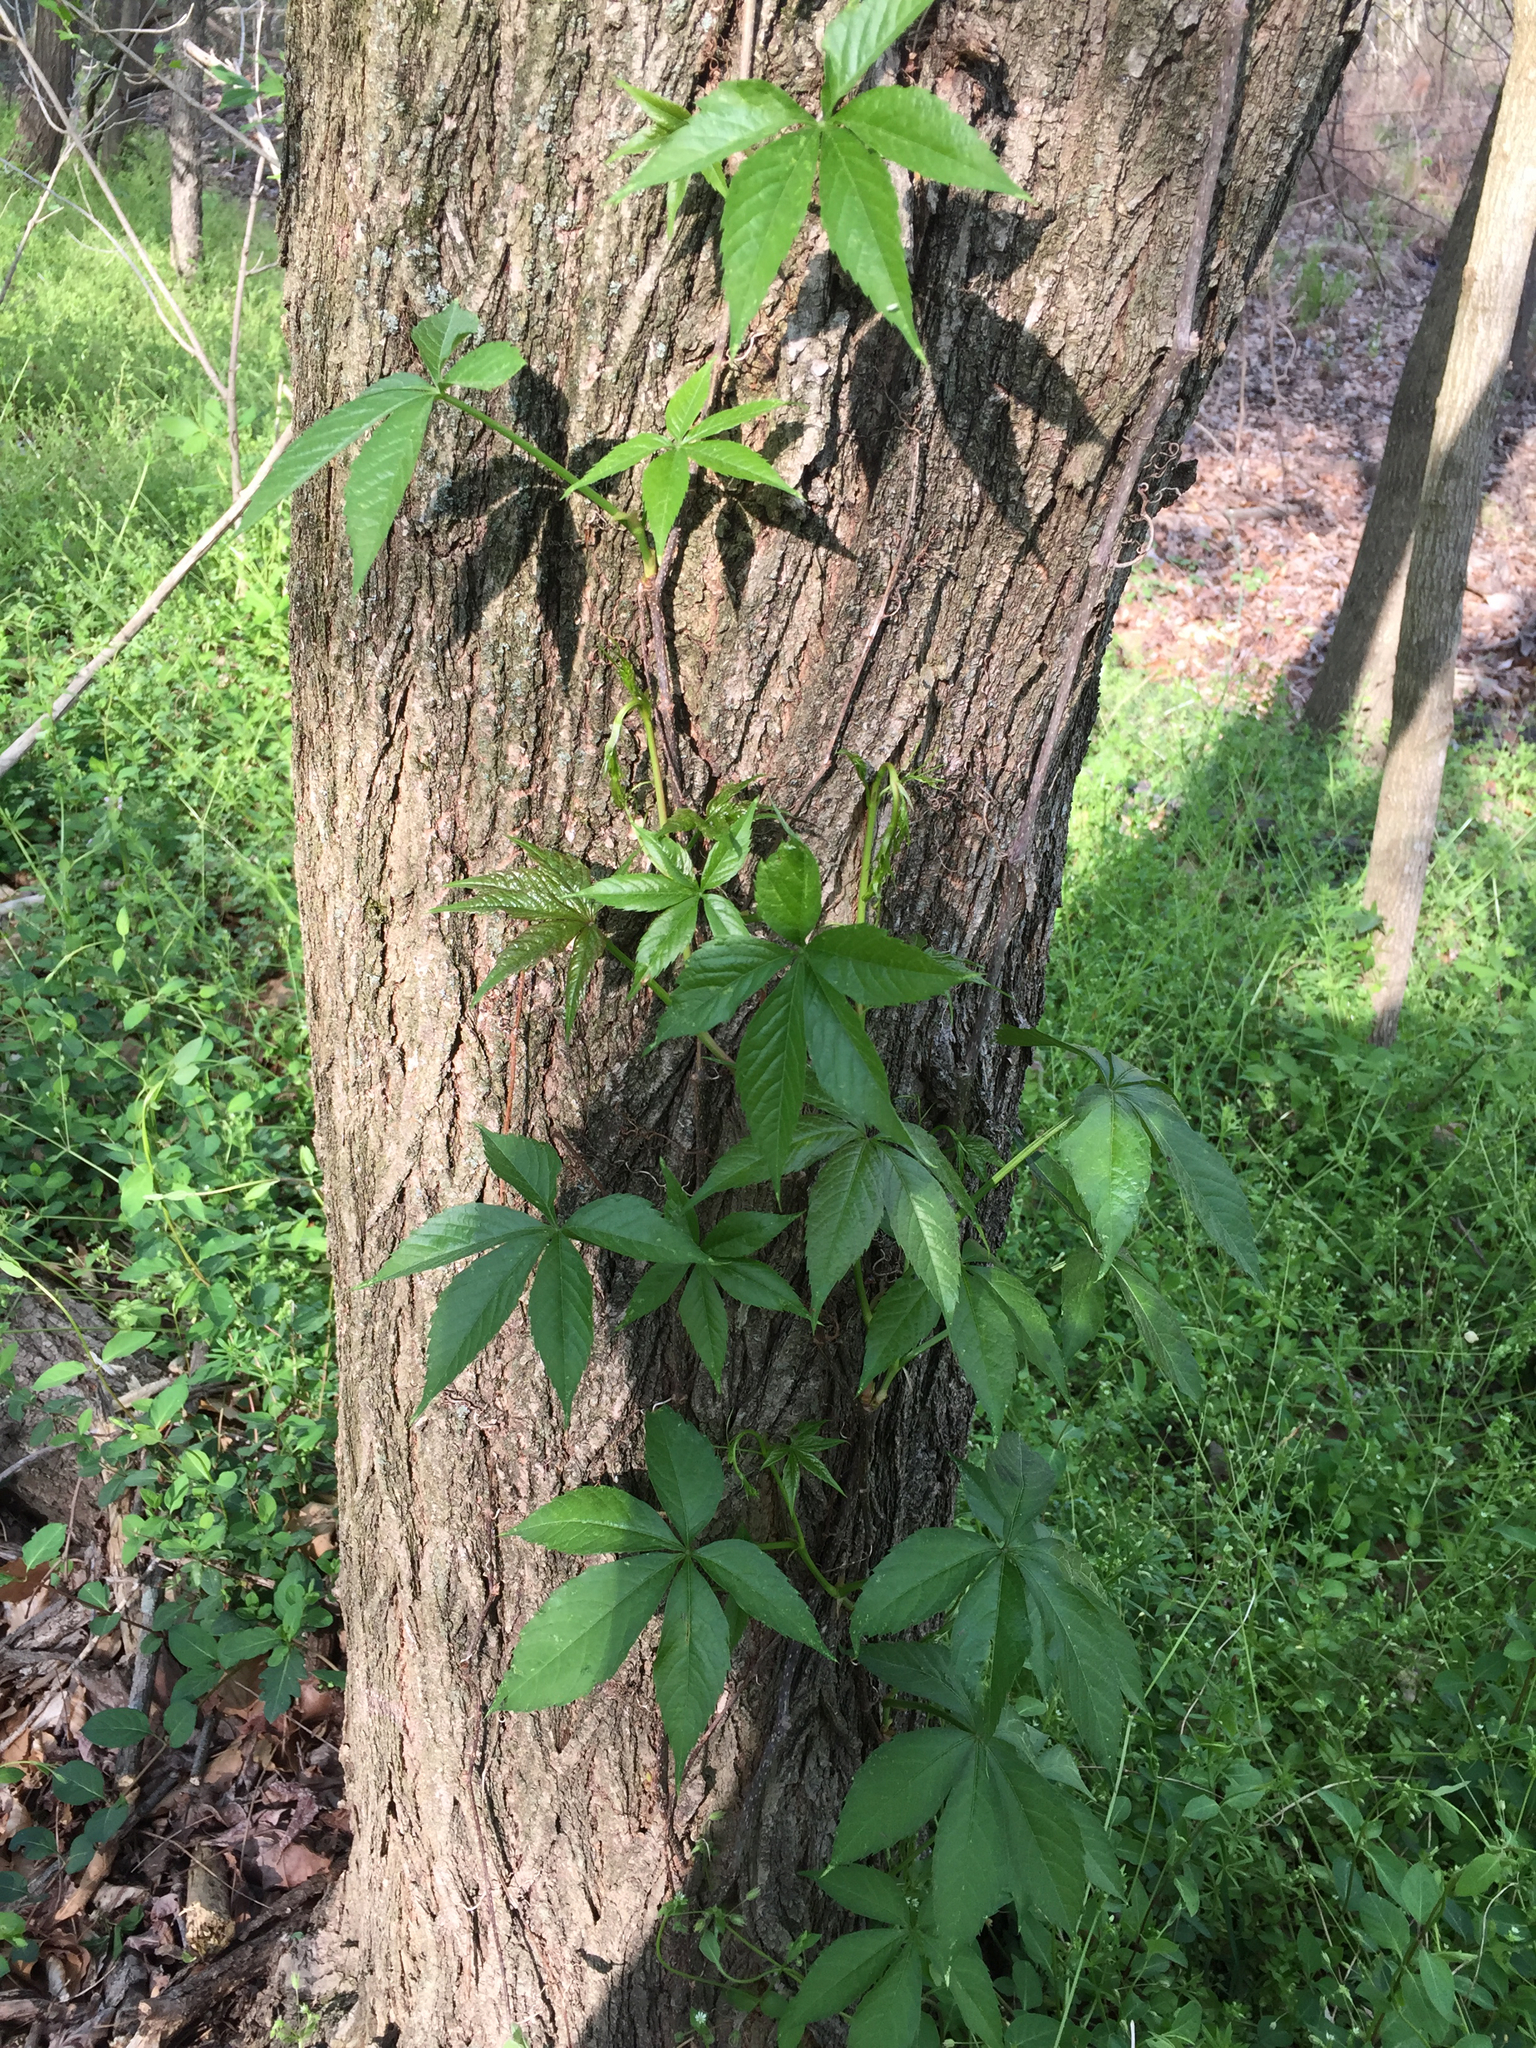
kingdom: Plantae
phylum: Tracheophyta
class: Magnoliopsida
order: Vitales
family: Vitaceae
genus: Parthenocissus
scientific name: Parthenocissus quinquefolia
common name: Virginia-creeper
